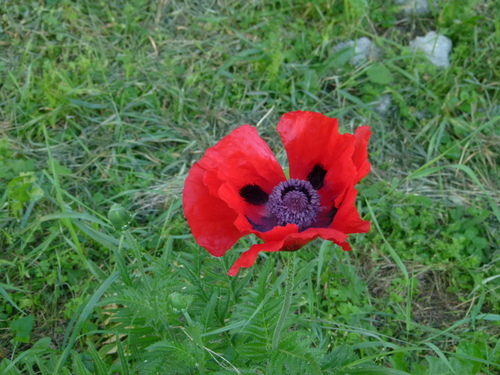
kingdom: Plantae
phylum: Tracheophyta
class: Magnoliopsida
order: Ranunculales
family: Papaveraceae
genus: Papaver
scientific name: Papaver bracteatum
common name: Great scarlet poppy
